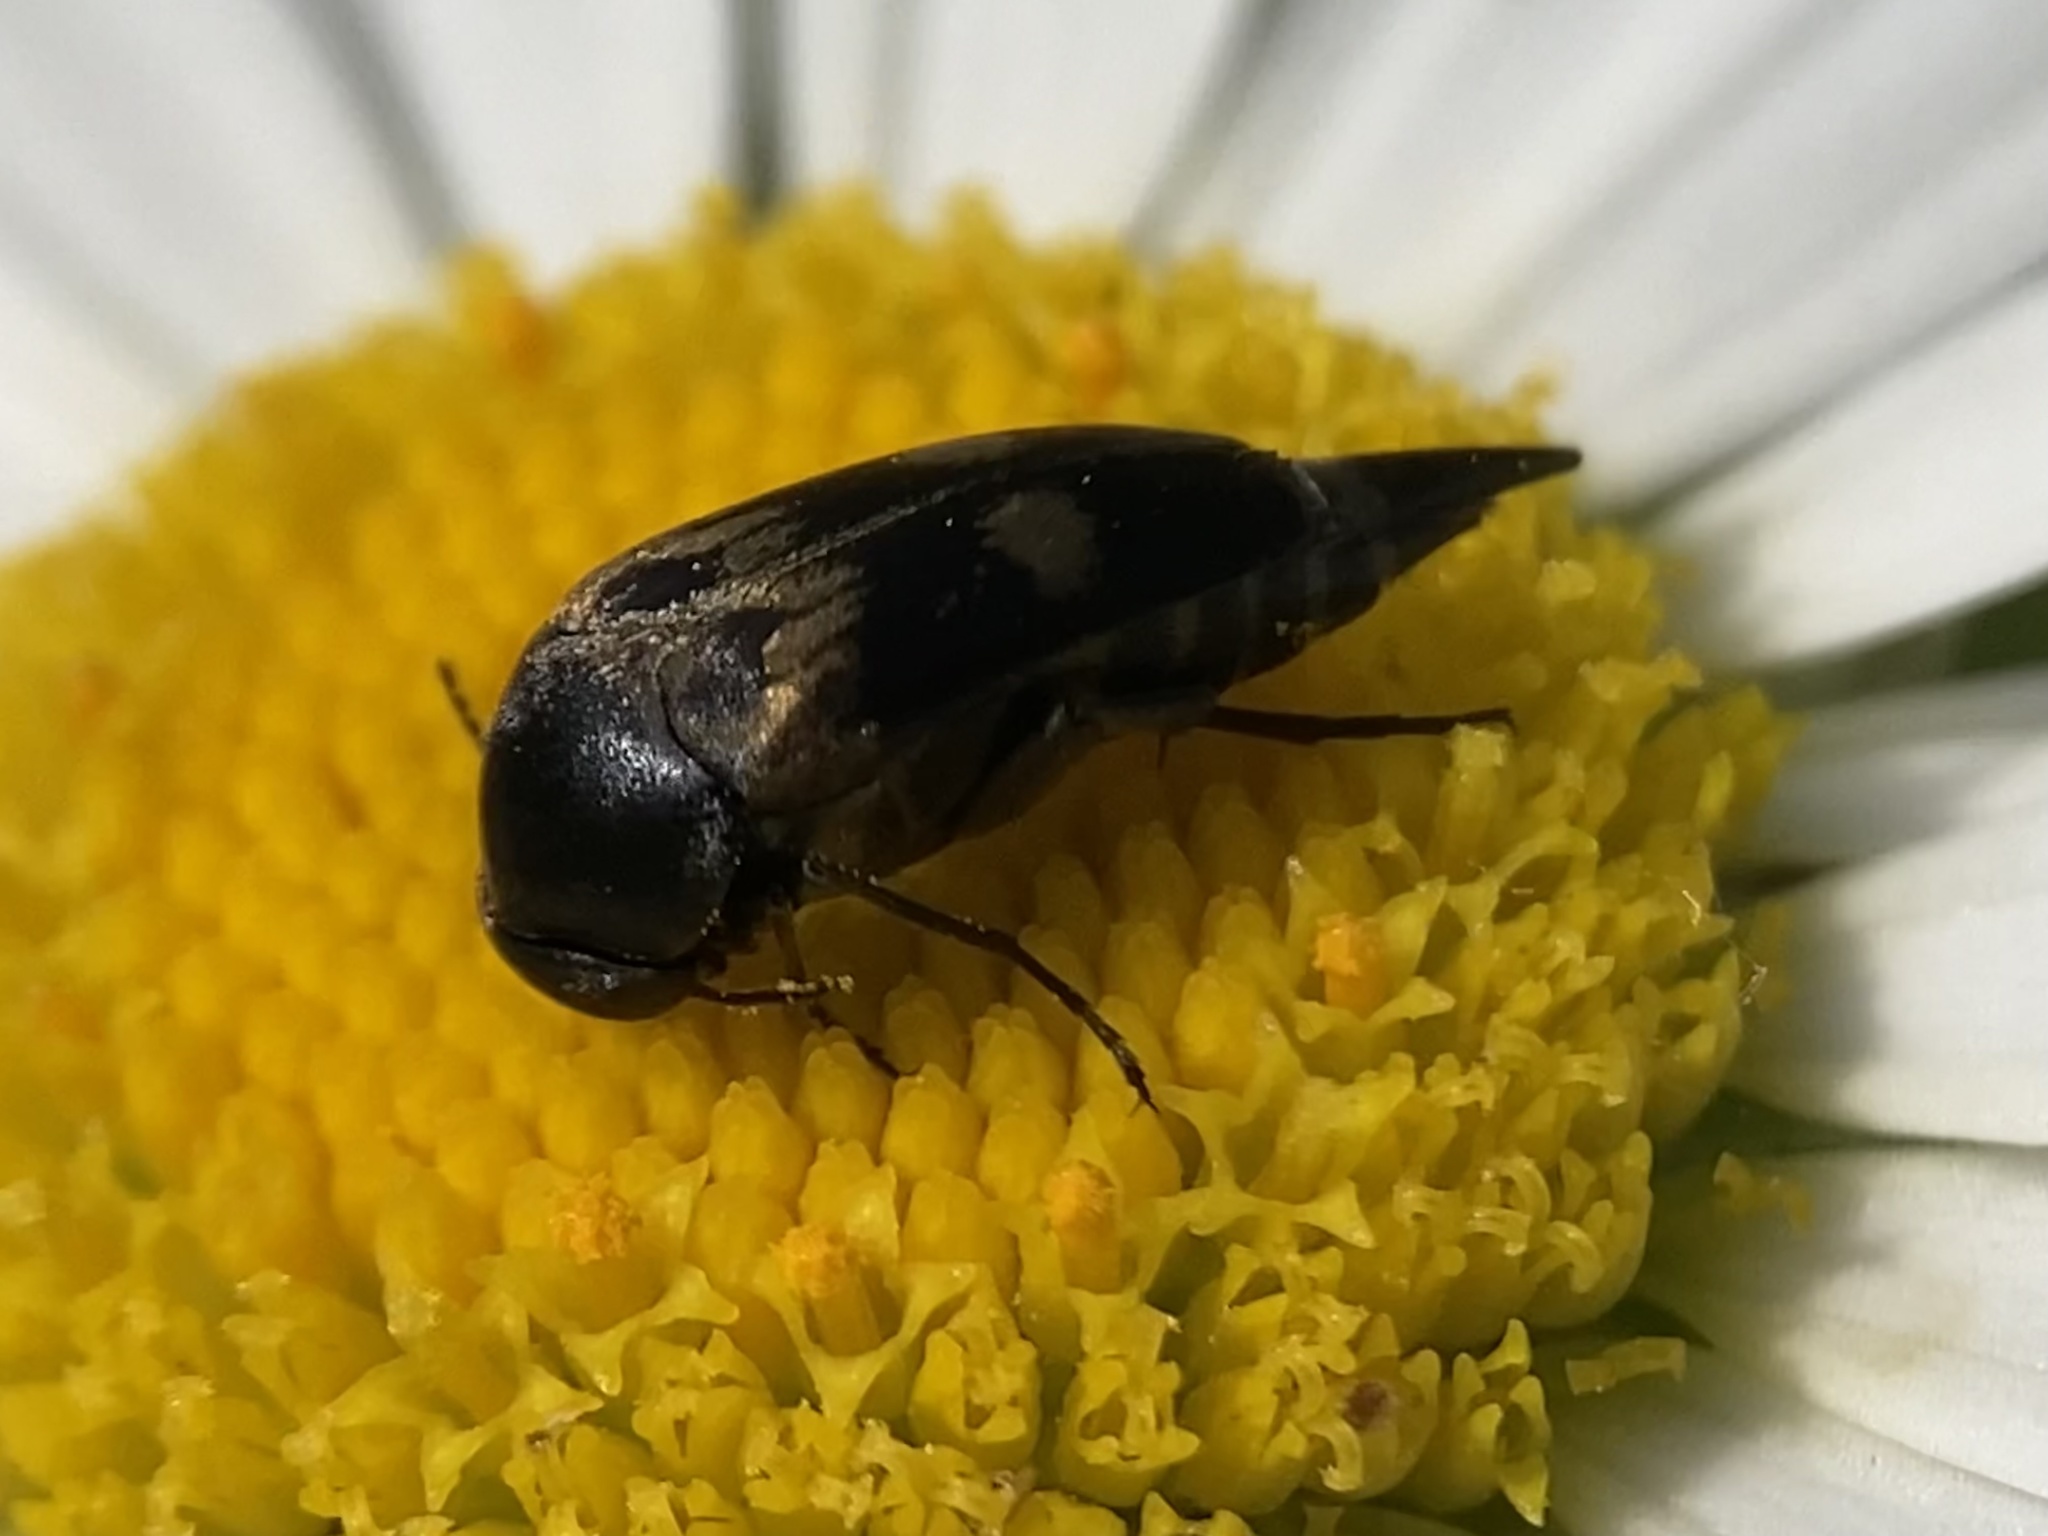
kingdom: Animalia
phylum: Arthropoda
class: Insecta
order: Coleoptera
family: Mordellidae
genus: Variimorda
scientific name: Variimorda villosa
